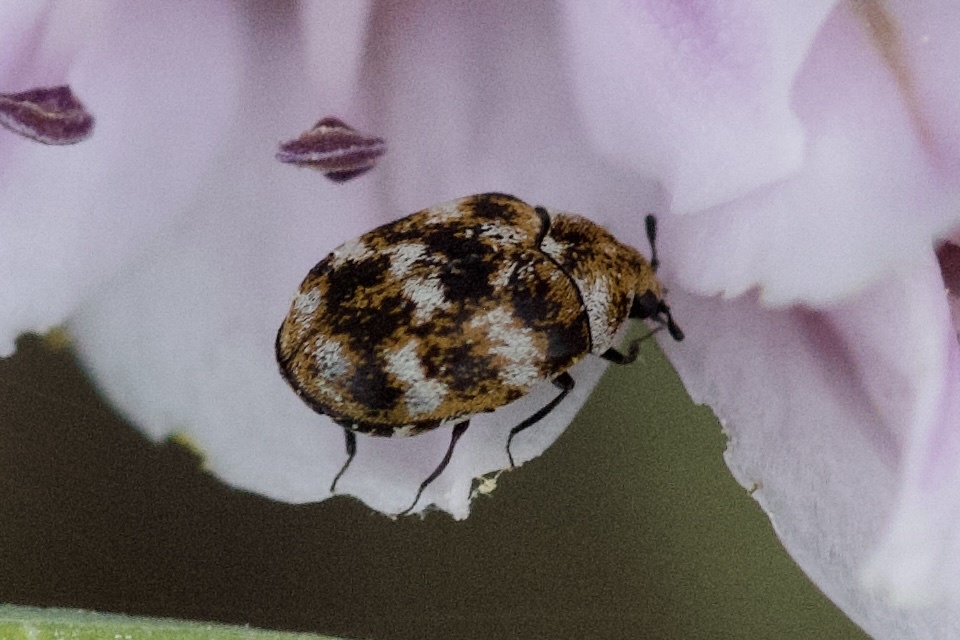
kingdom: Animalia
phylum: Arthropoda
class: Insecta
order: Coleoptera
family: Dermestidae
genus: Anthrenus
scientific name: Anthrenus verbasci
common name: Varied carpet beetle
